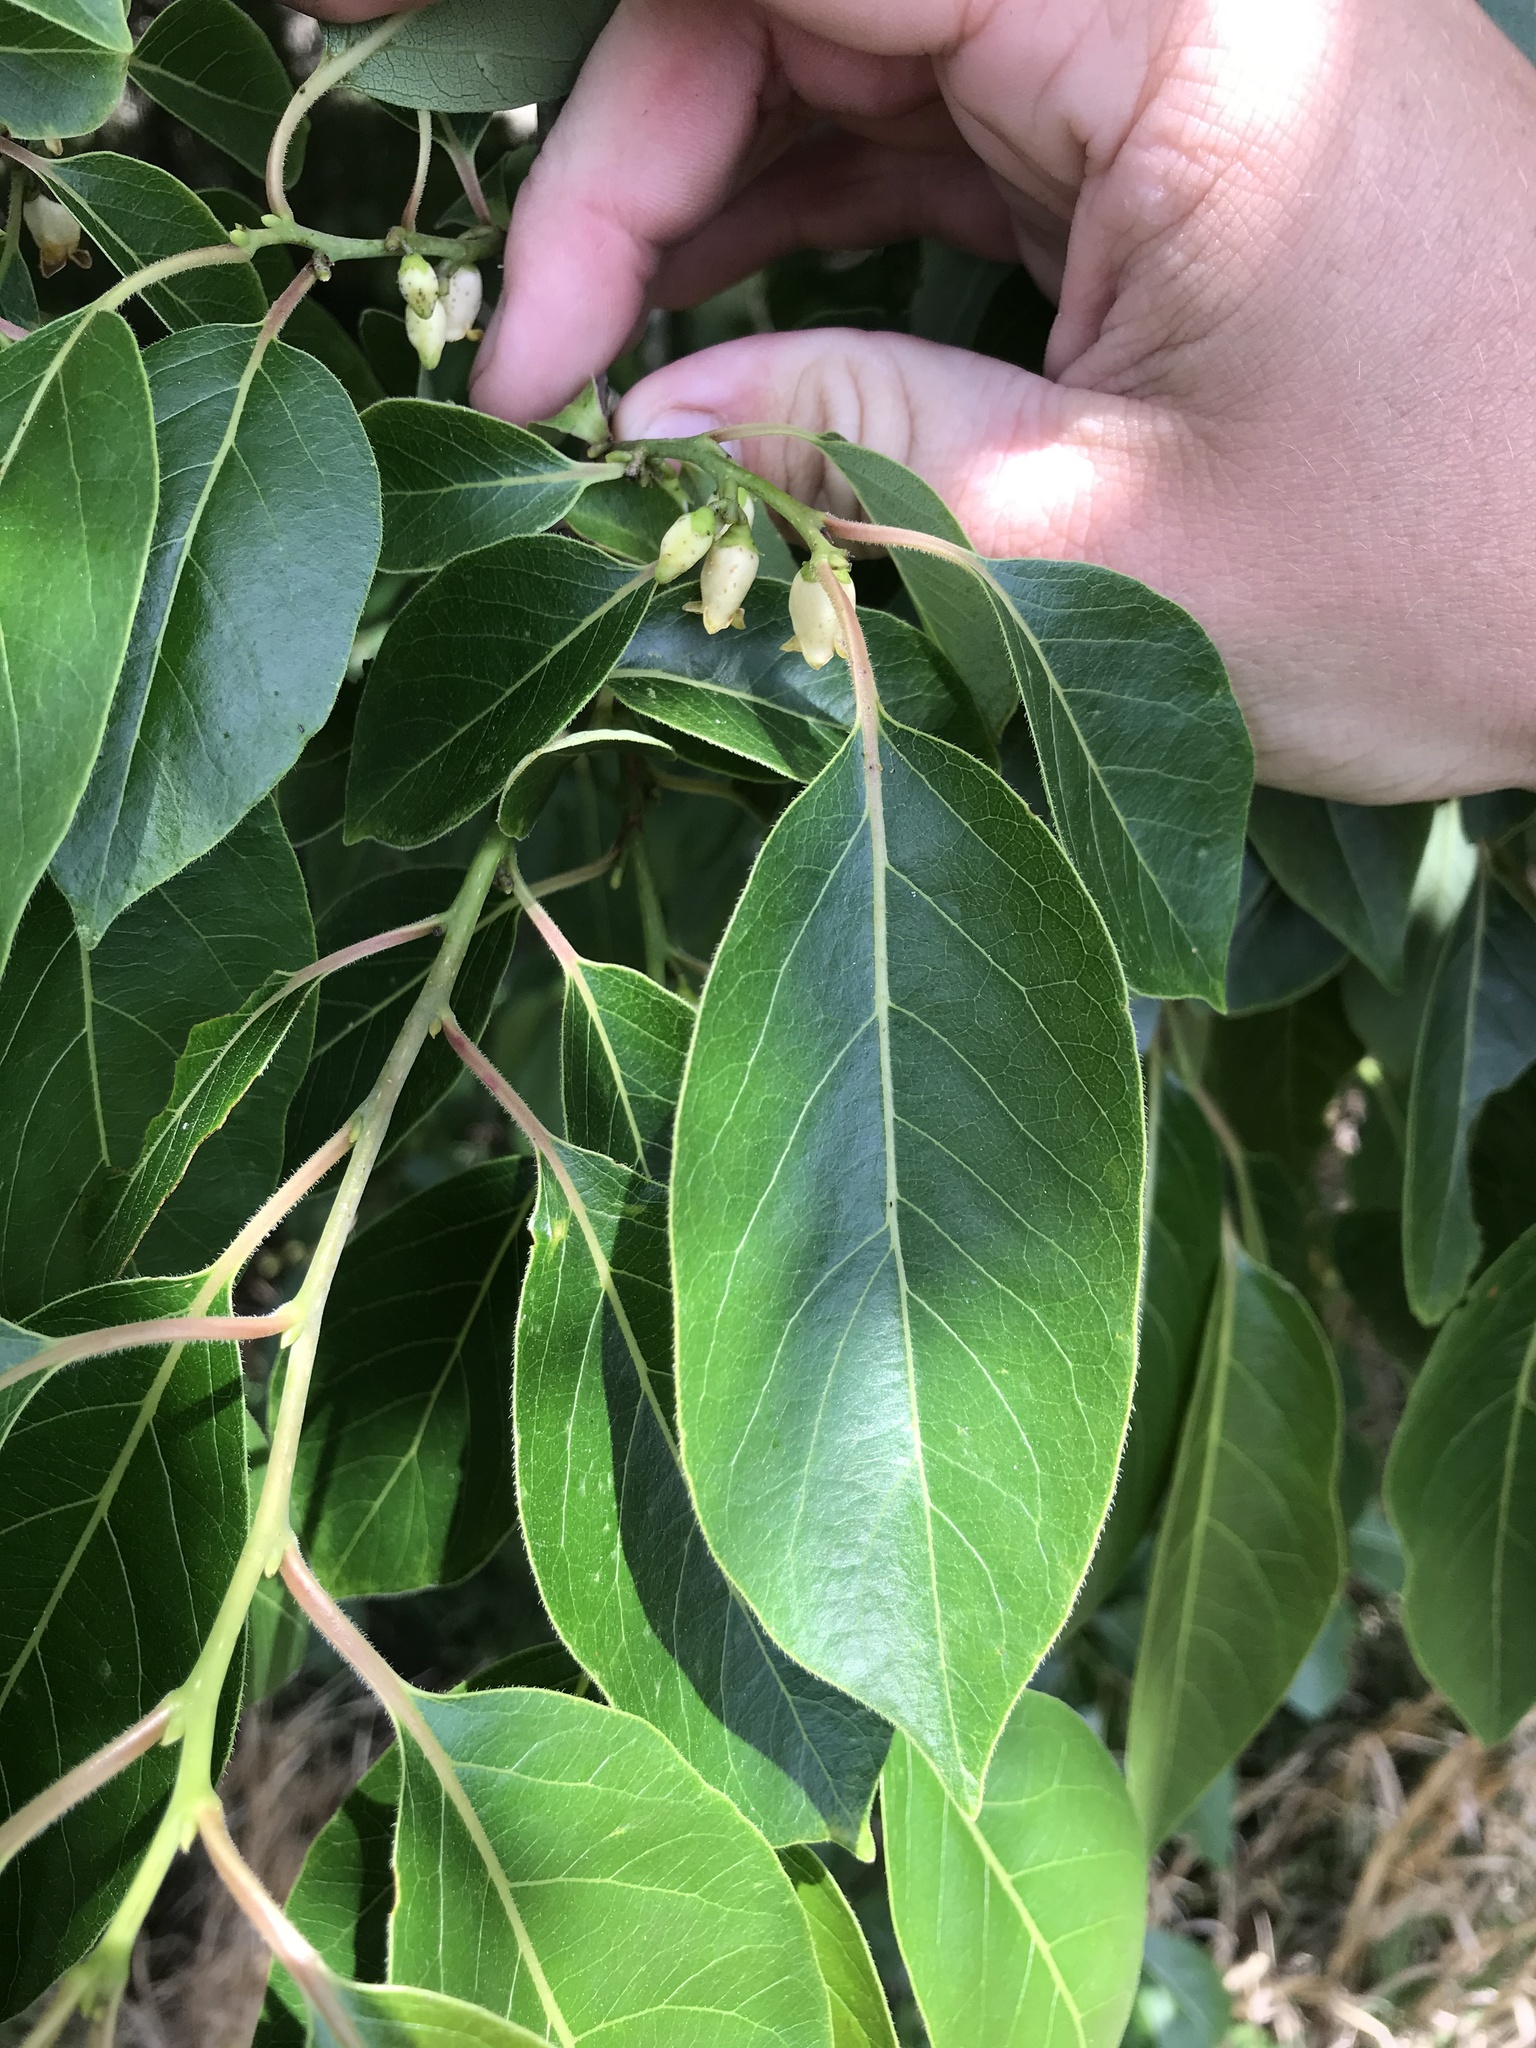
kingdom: Plantae
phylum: Tracheophyta
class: Magnoliopsida
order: Ericales
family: Ebenaceae
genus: Diospyros
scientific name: Diospyros virginiana
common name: Persimmon
